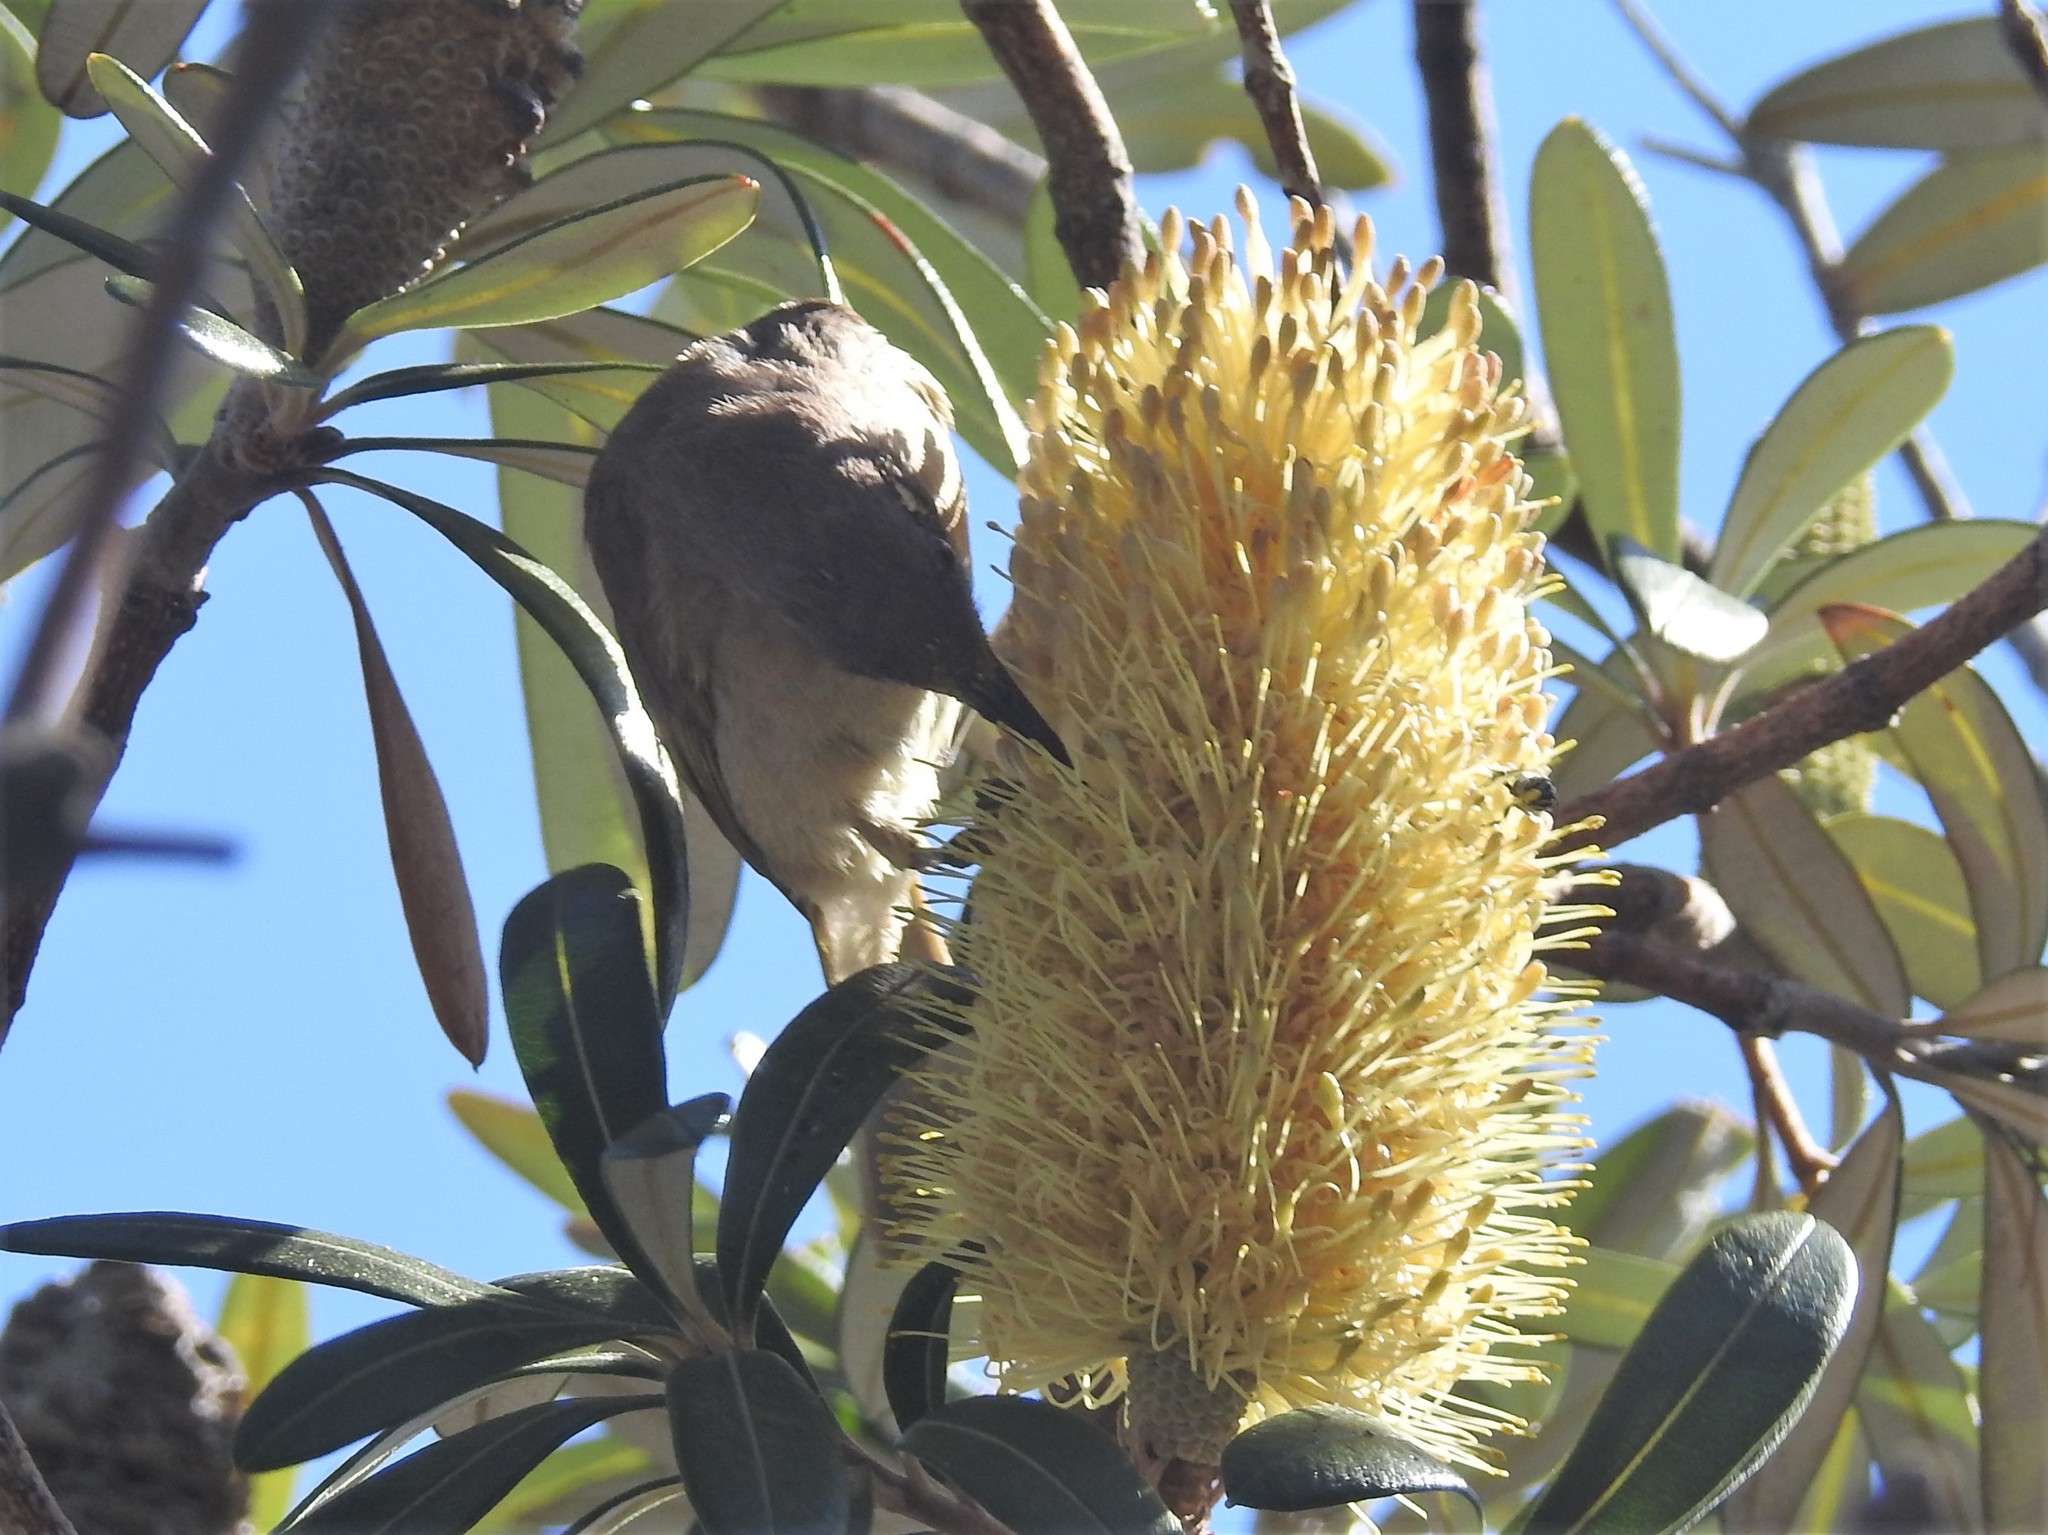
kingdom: Animalia
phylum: Chordata
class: Aves
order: Passeriformes
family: Meliphagidae
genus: Lichmera
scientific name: Lichmera indistincta
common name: Brown honeyeater
